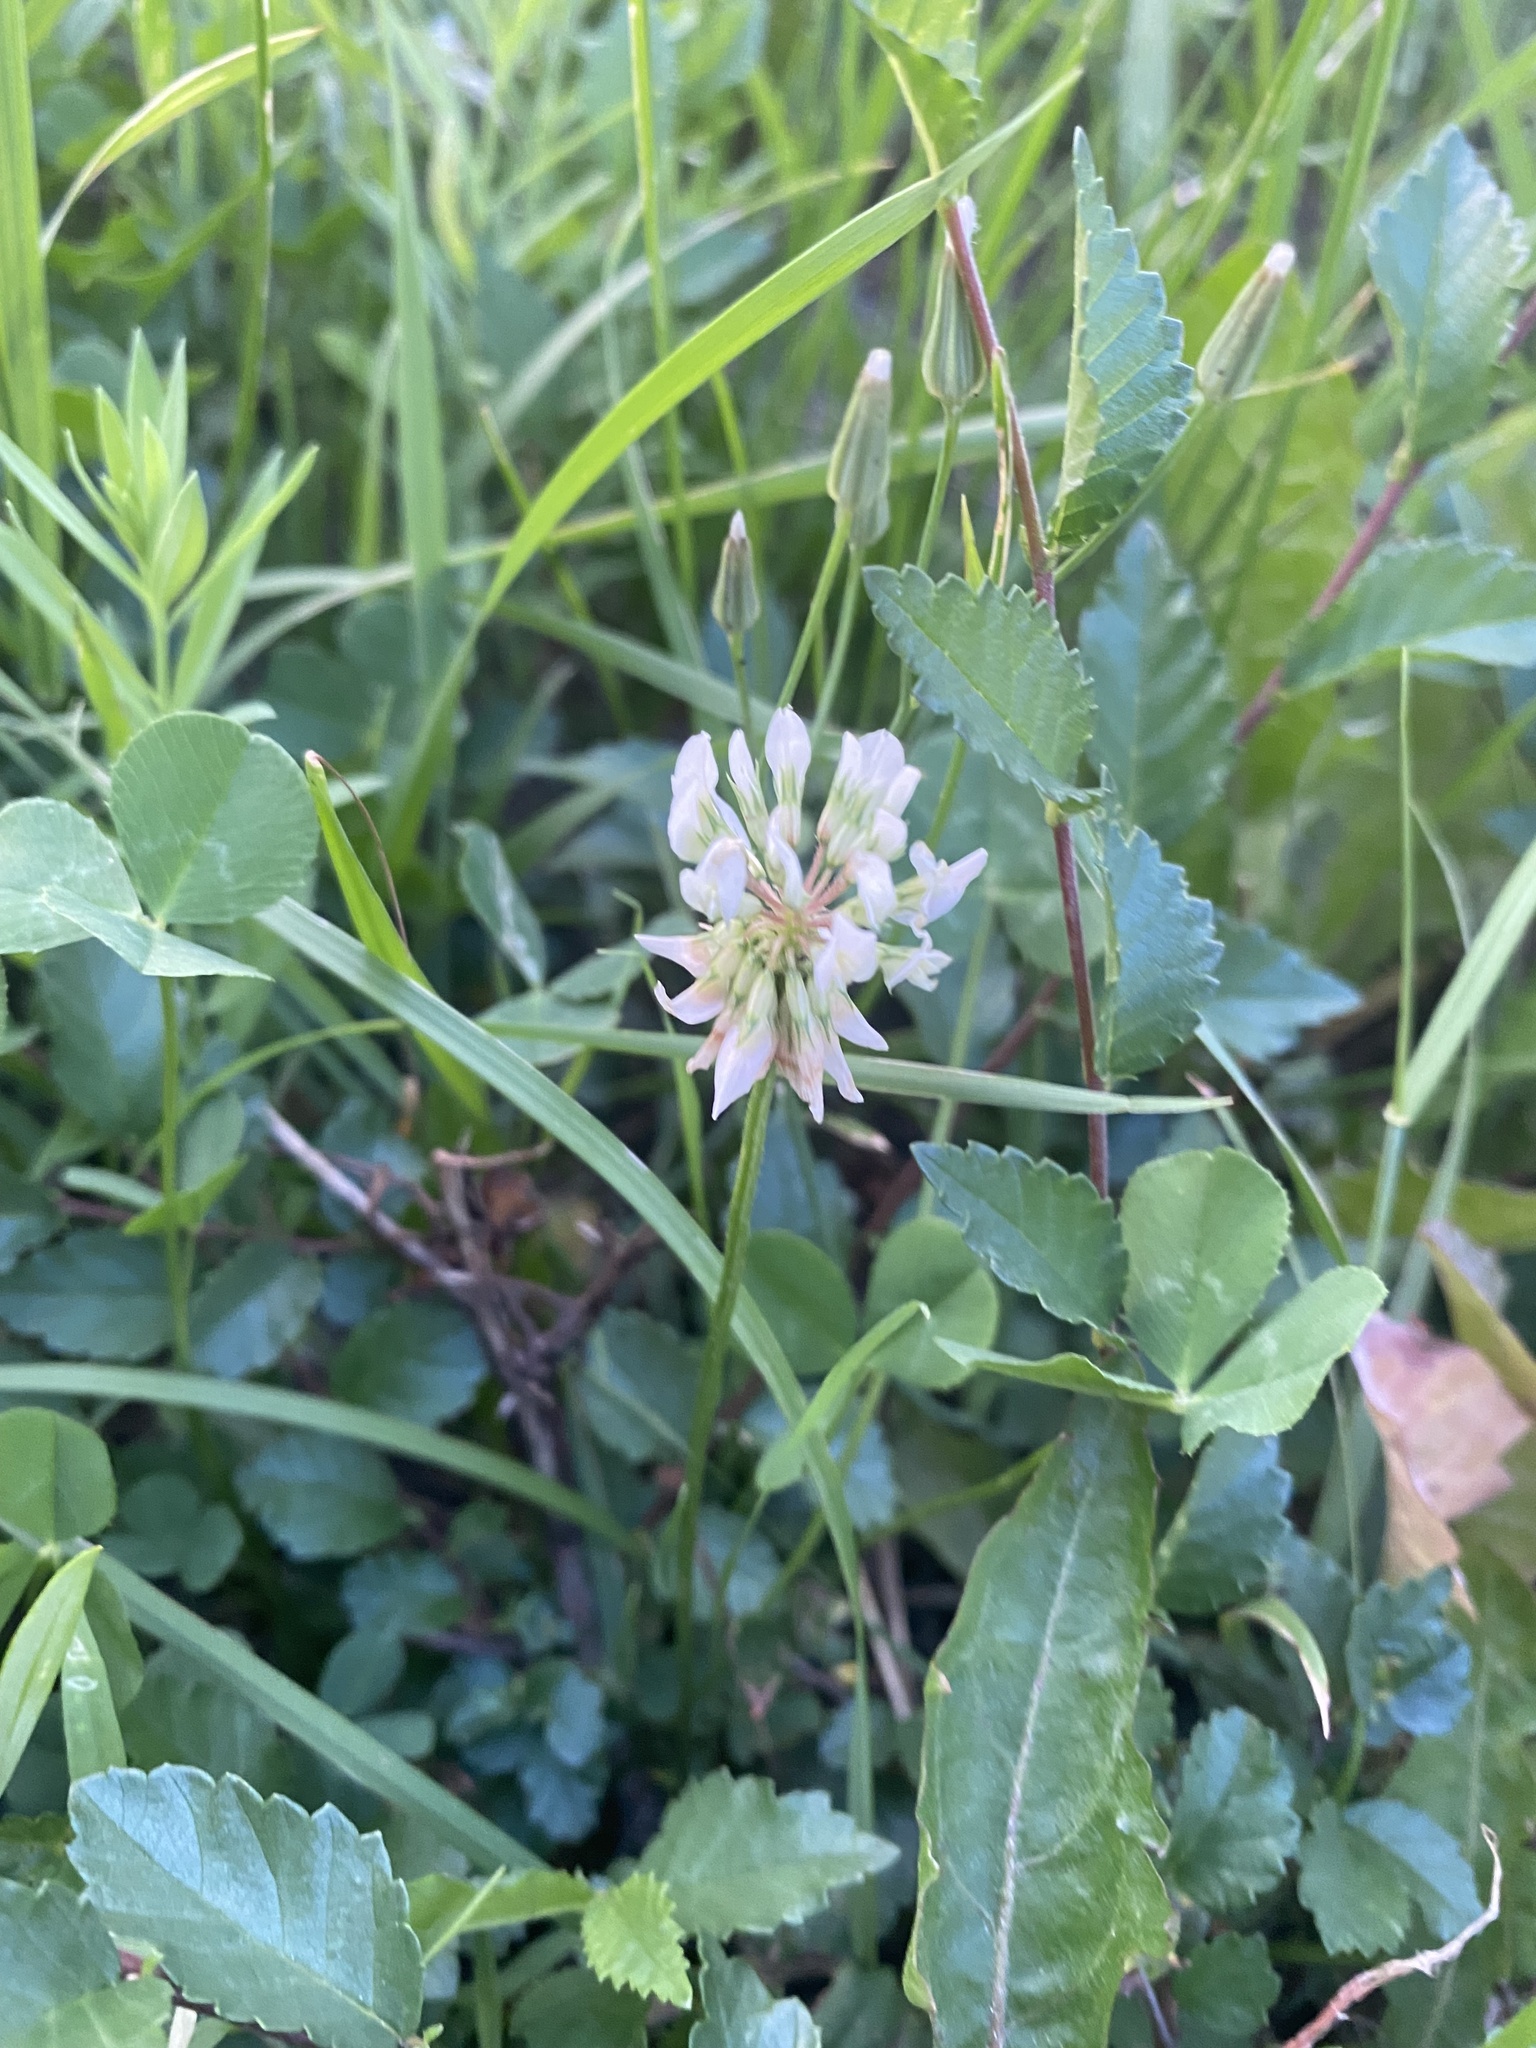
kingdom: Plantae
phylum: Tracheophyta
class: Magnoliopsida
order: Fabales
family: Fabaceae
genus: Trifolium
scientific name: Trifolium repens
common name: White clover
